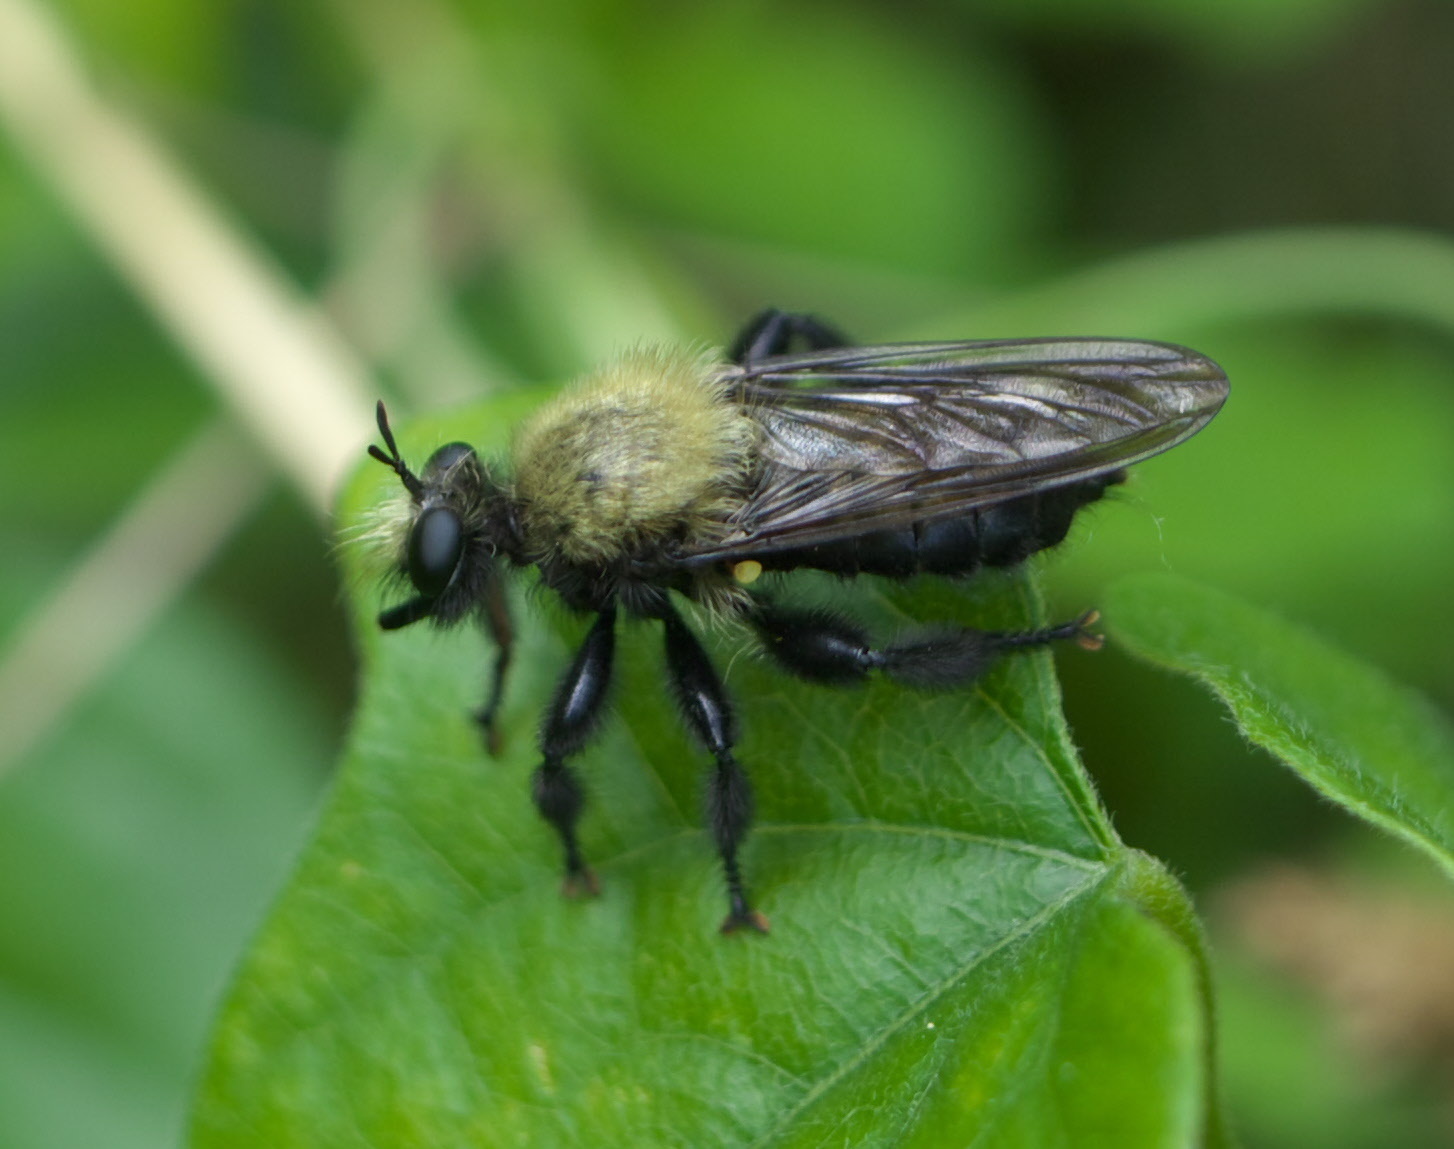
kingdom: Animalia
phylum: Arthropoda
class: Insecta
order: Diptera
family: Asilidae
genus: Laphria
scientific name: Laphria flavicollis
